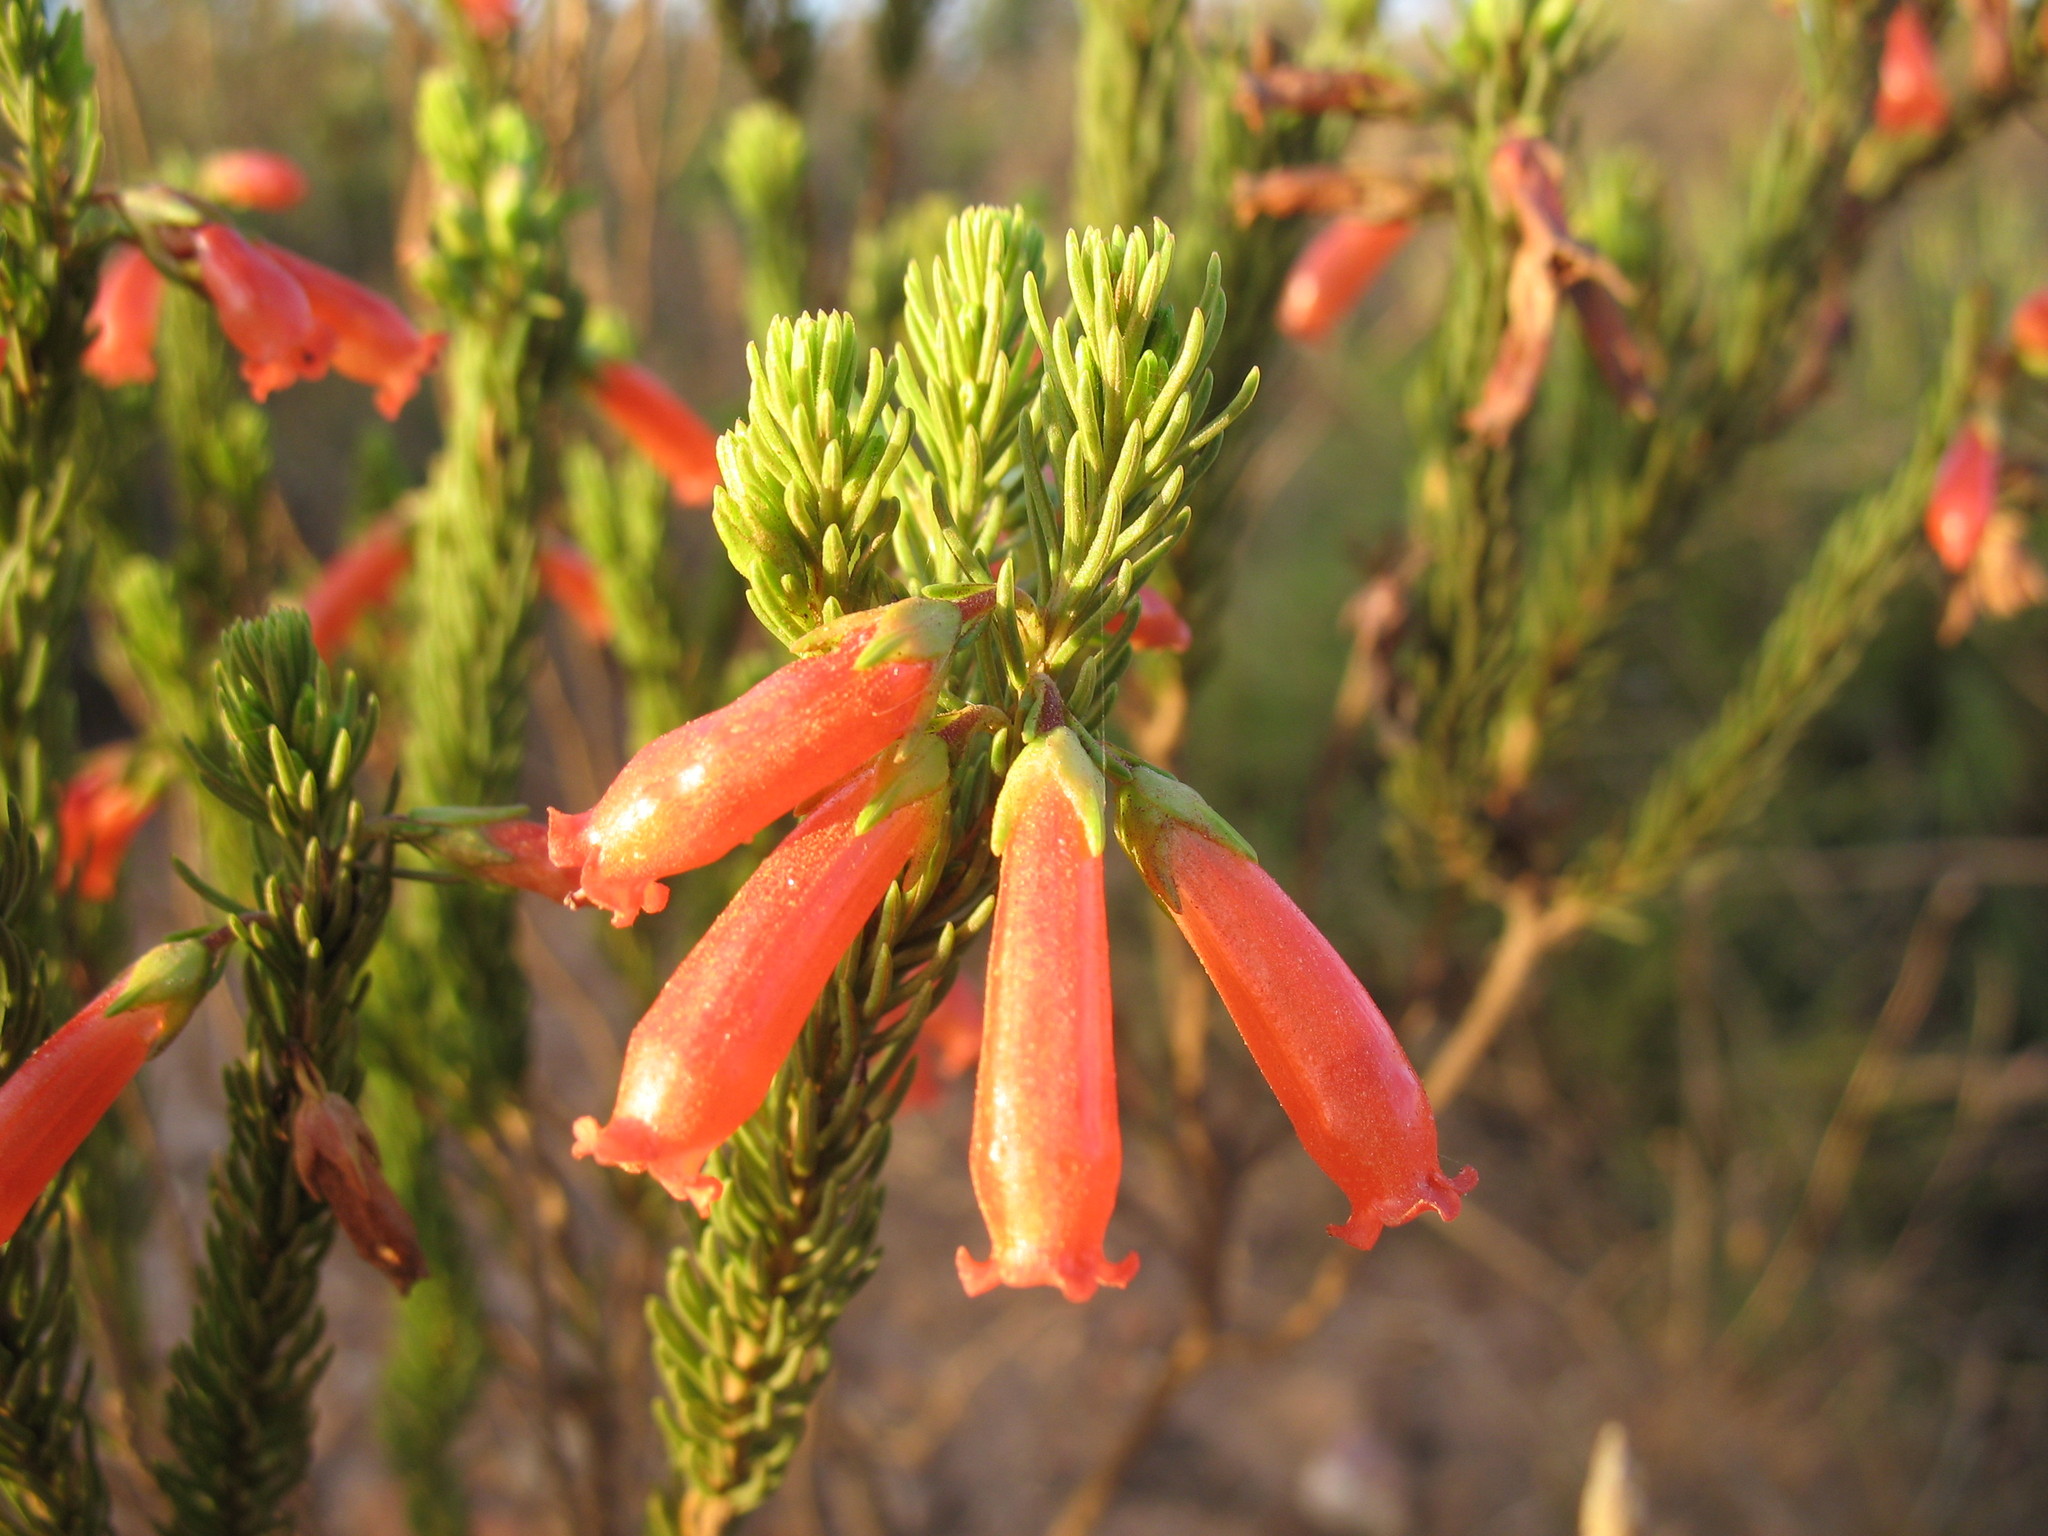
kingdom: Plantae
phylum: Tracheophyta
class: Magnoliopsida
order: Ericales
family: Ericaceae
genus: Erica
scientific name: Erica regia
